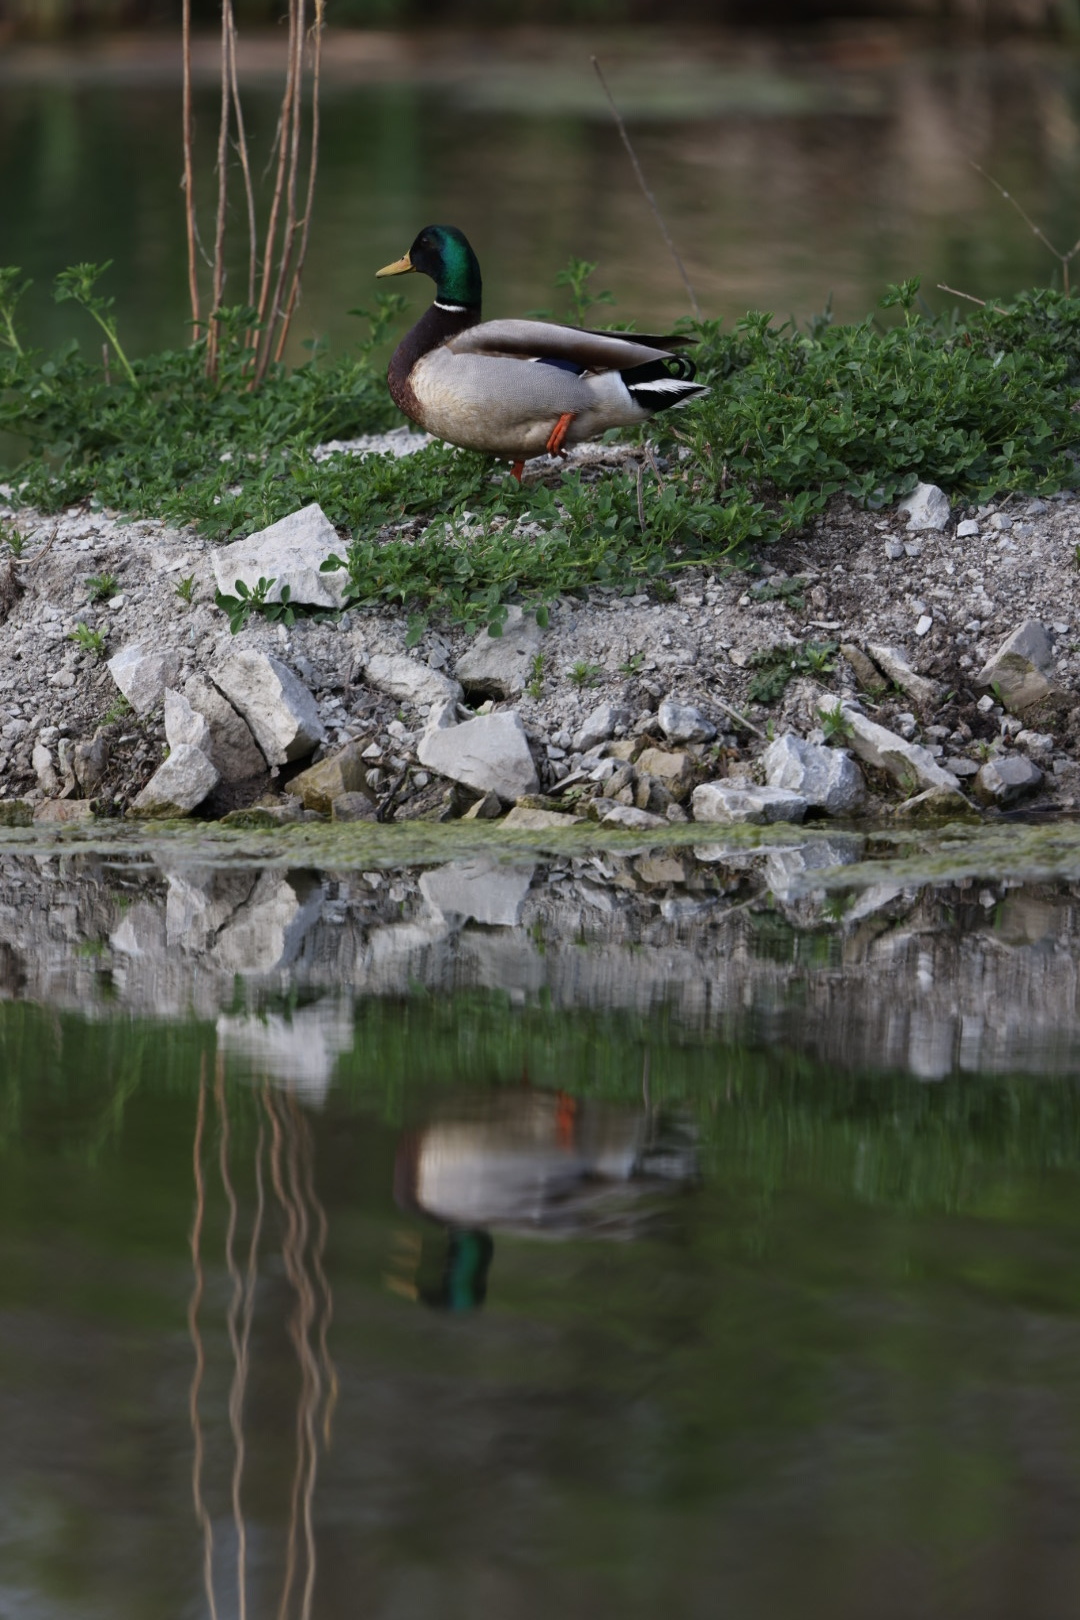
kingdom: Animalia
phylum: Chordata
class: Aves
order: Anseriformes
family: Anatidae
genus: Anas
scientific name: Anas platyrhynchos
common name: Mallard
